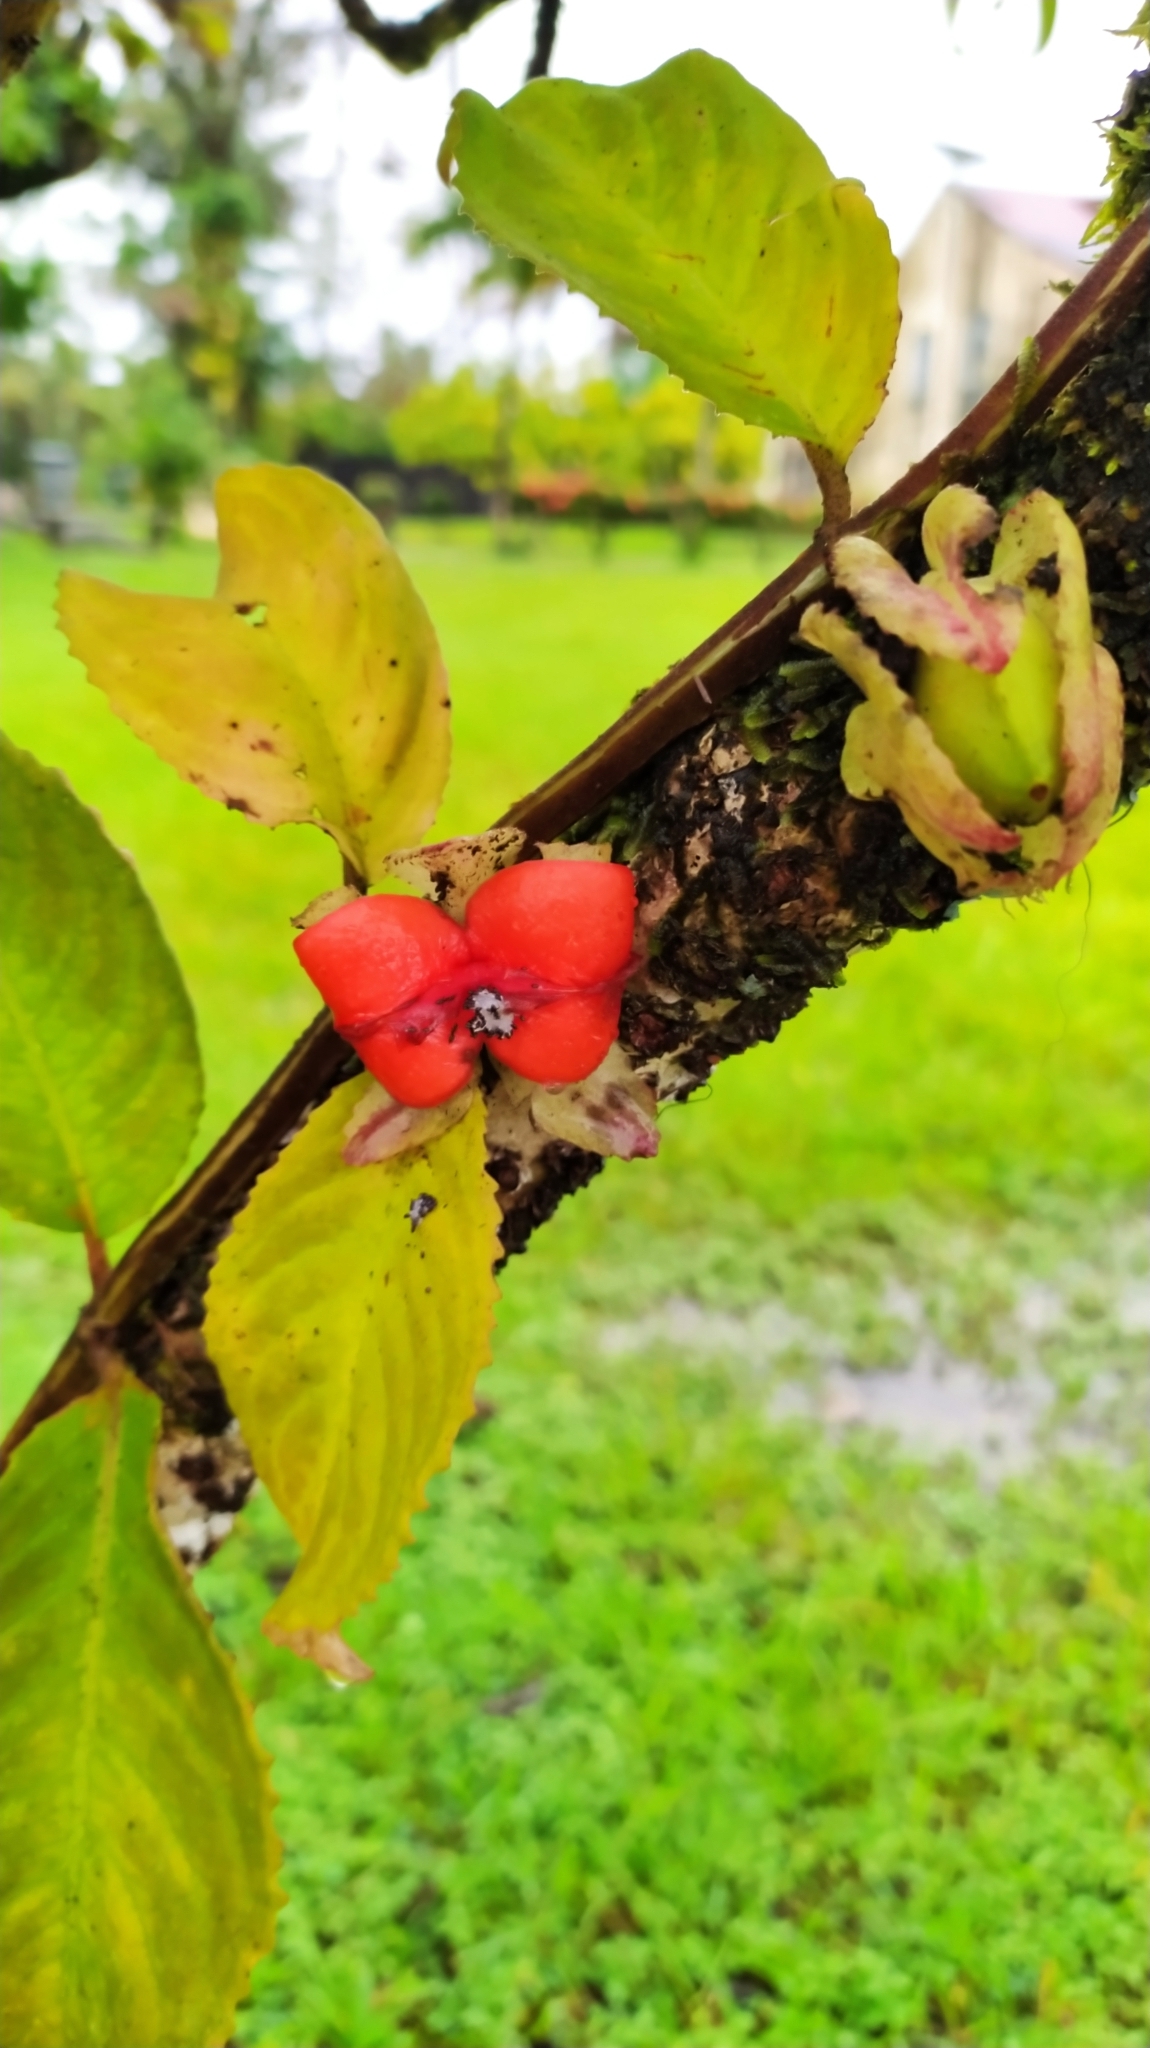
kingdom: Plantae
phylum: Tracheophyta
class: Magnoliopsida
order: Lamiales
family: Gesneriaceae
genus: Drymonia
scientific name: Drymonia serrulata
